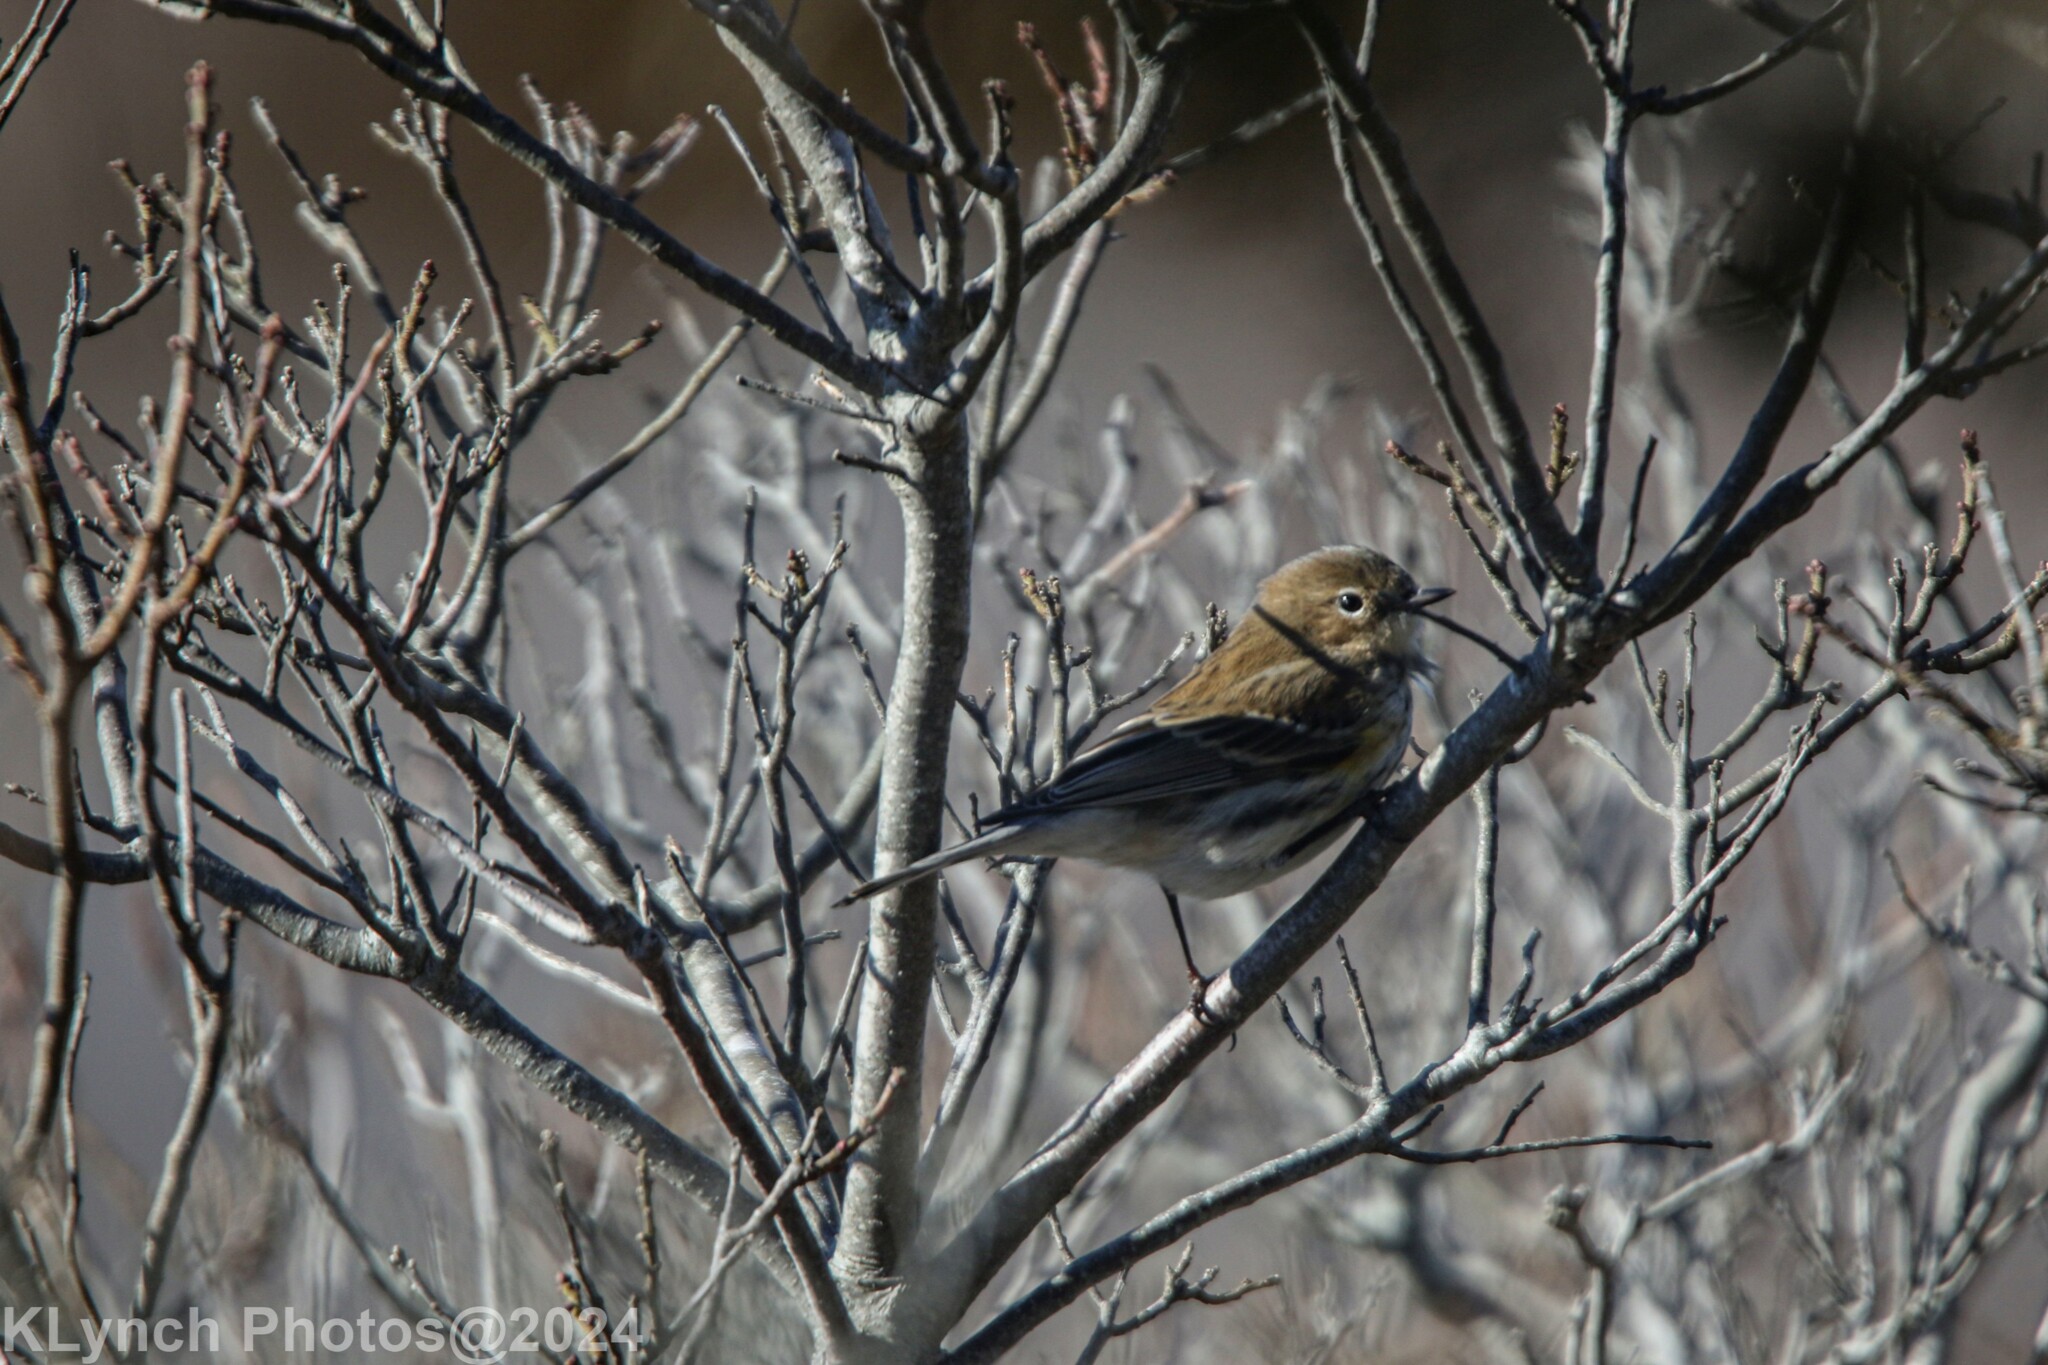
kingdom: Animalia
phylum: Chordata
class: Aves
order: Passeriformes
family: Parulidae
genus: Setophaga
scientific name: Setophaga coronata
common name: Myrtle warbler
